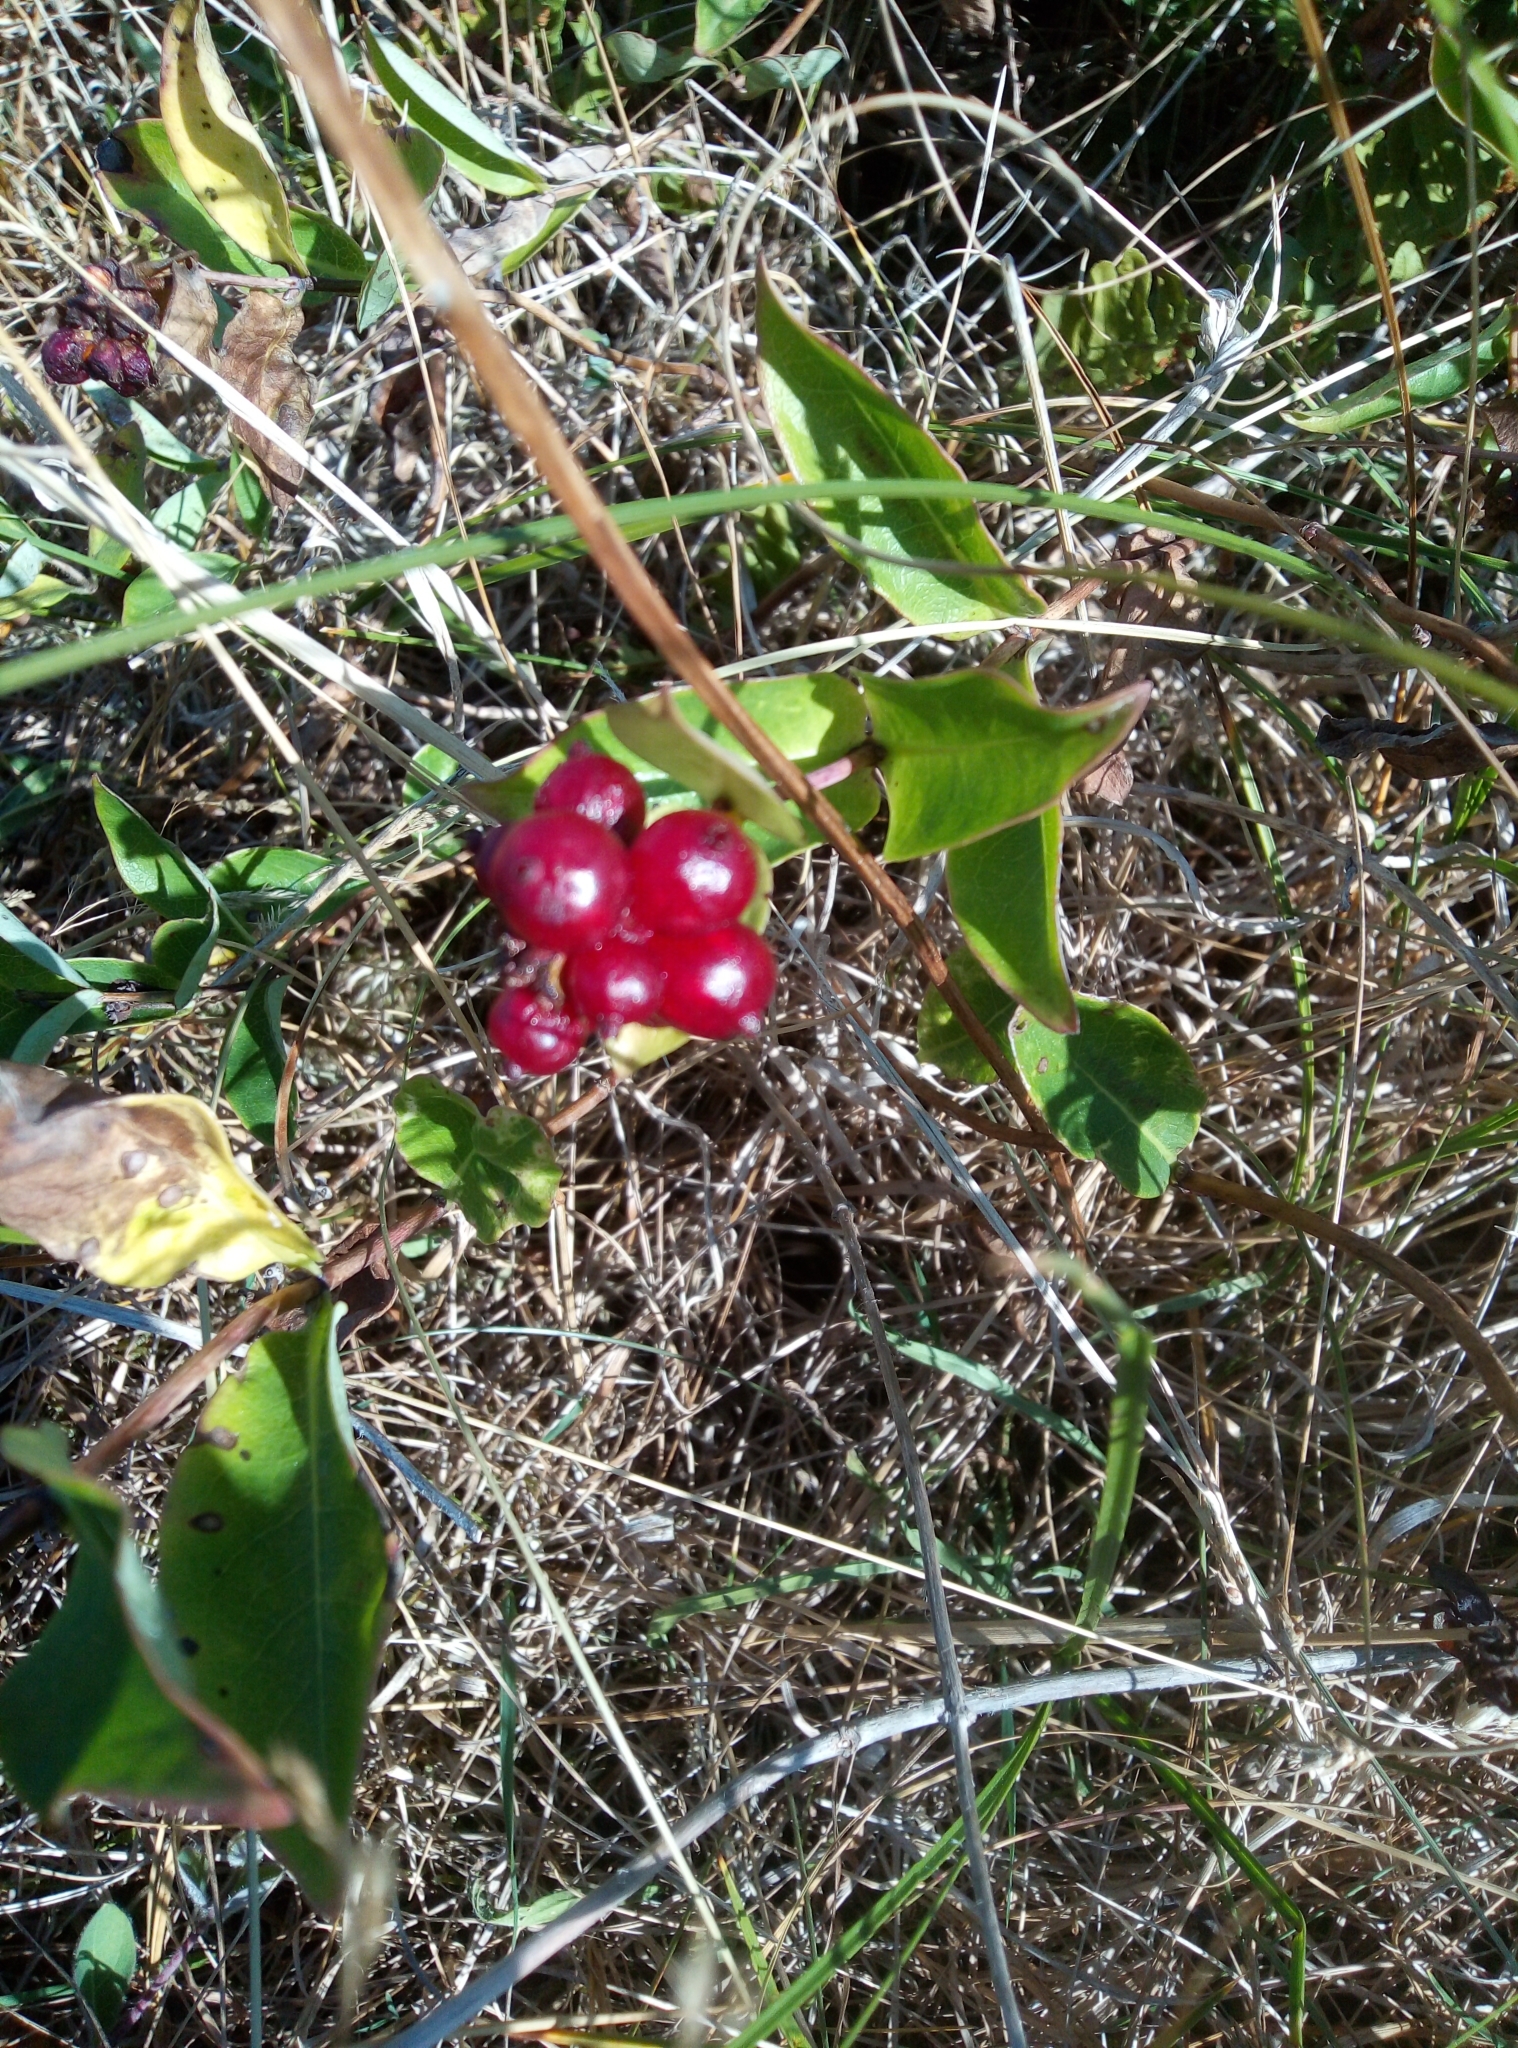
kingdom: Plantae
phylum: Tracheophyta
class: Magnoliopsida
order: Dipsacales
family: Caprifoliaceae
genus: Lonicera
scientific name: Lonicera periclymenum
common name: European honeysuckle
